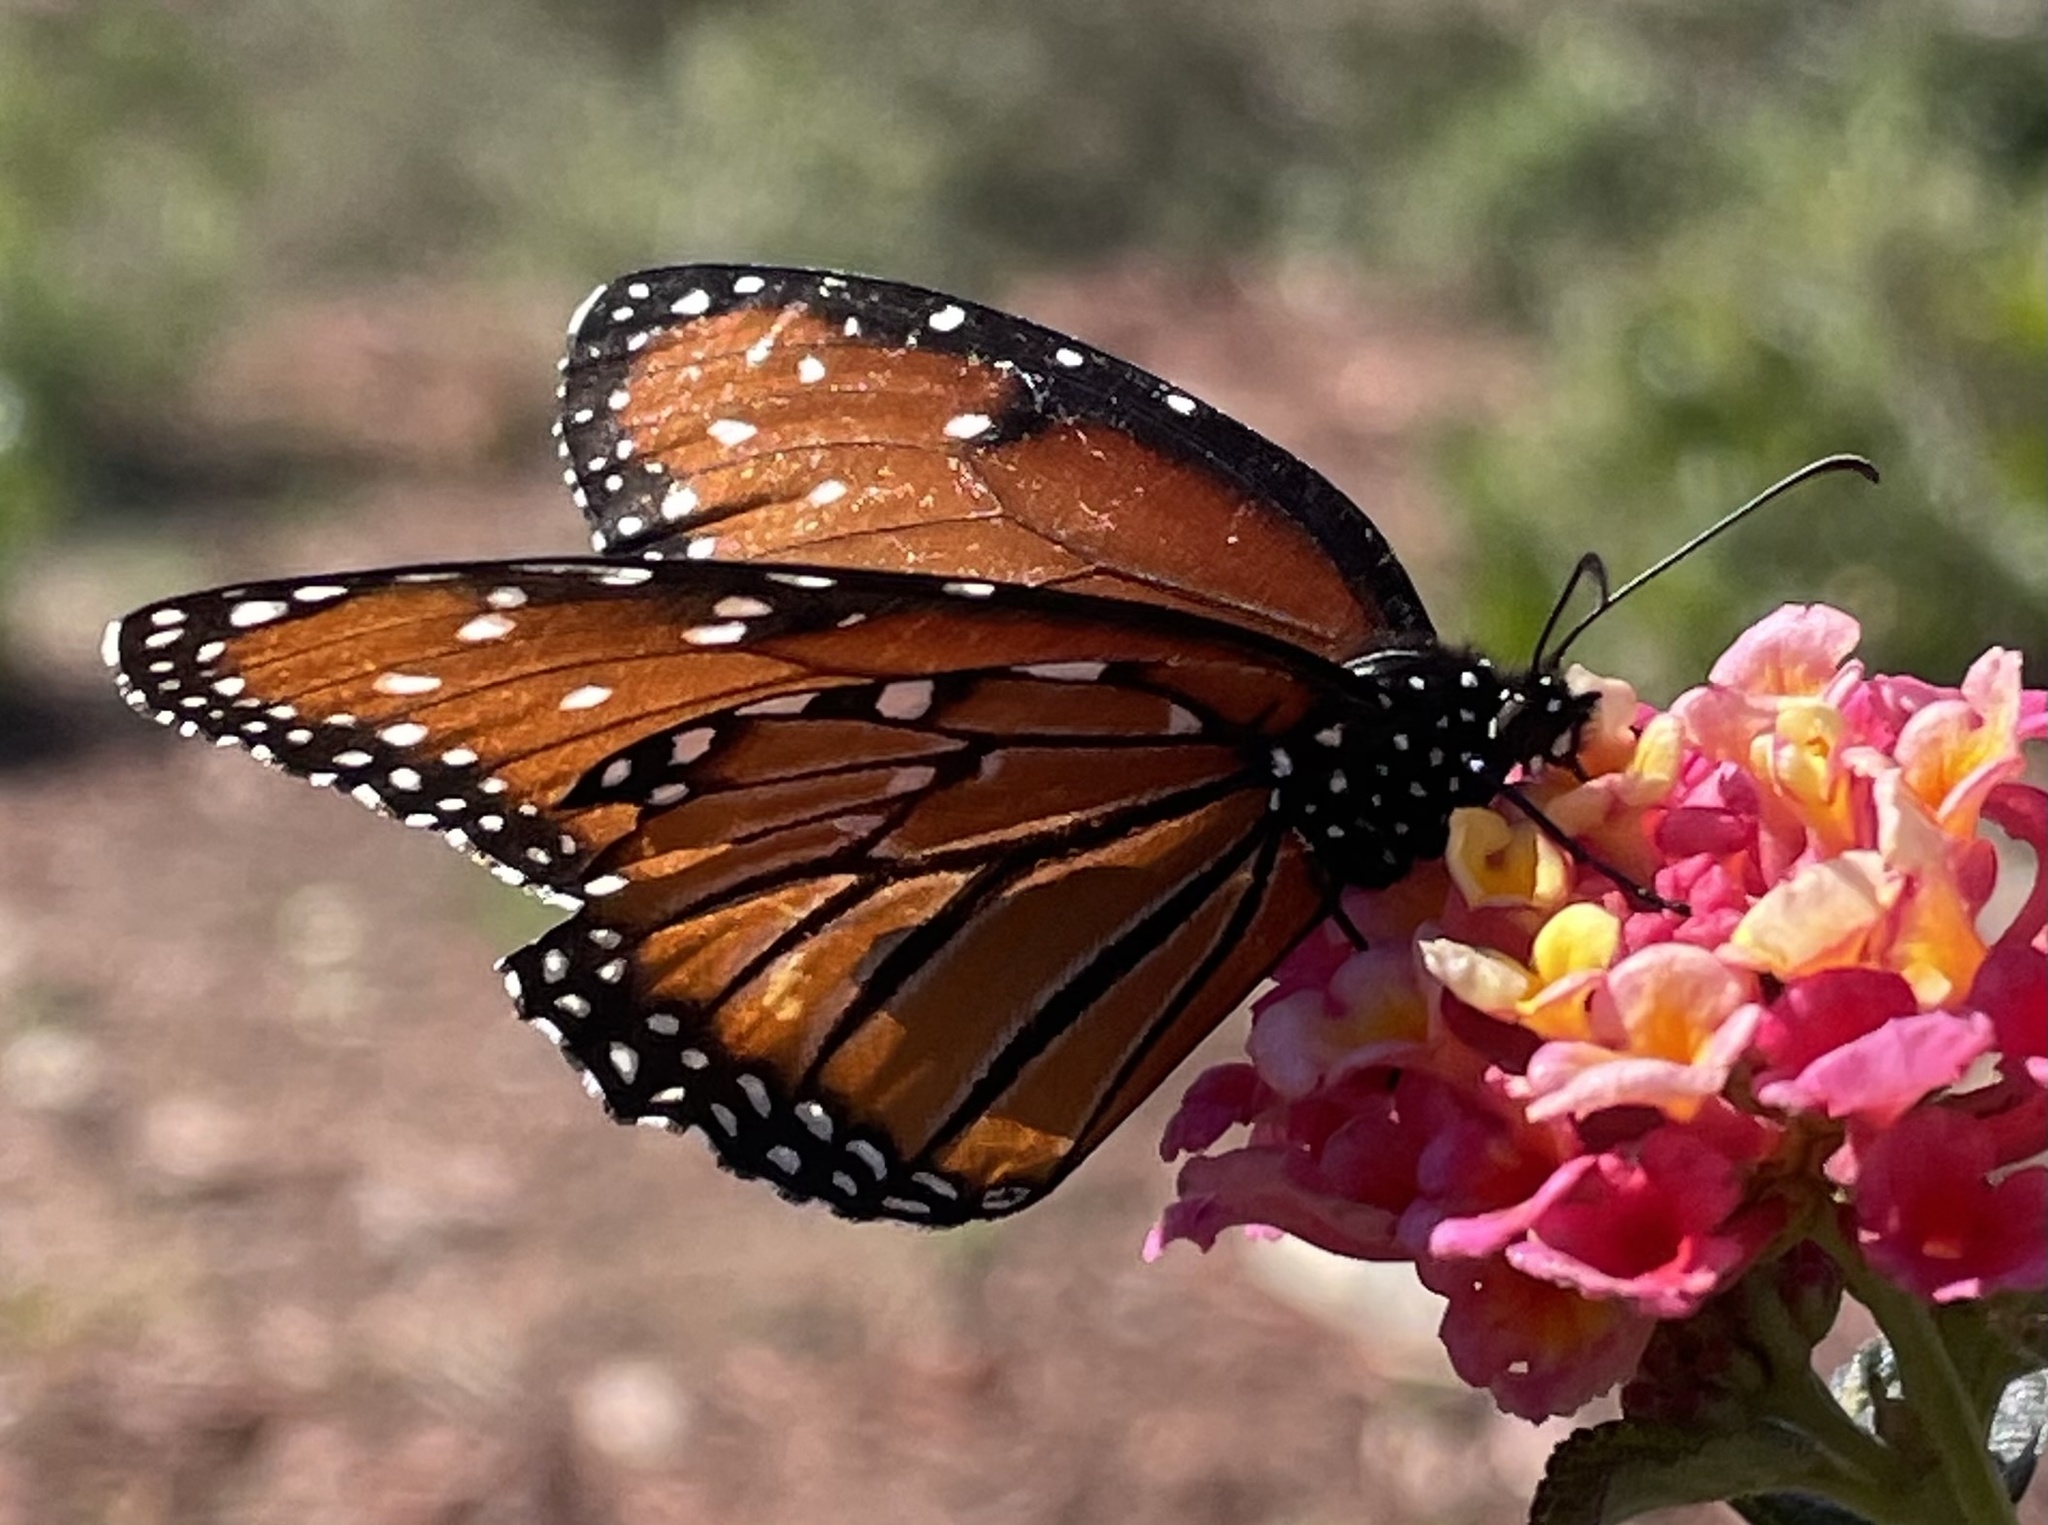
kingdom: Animalia
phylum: Arthropoda
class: Insecta
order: Lepidoptera
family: Nymphalidae
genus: Danaus
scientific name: Danaus gilippus
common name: Queen
